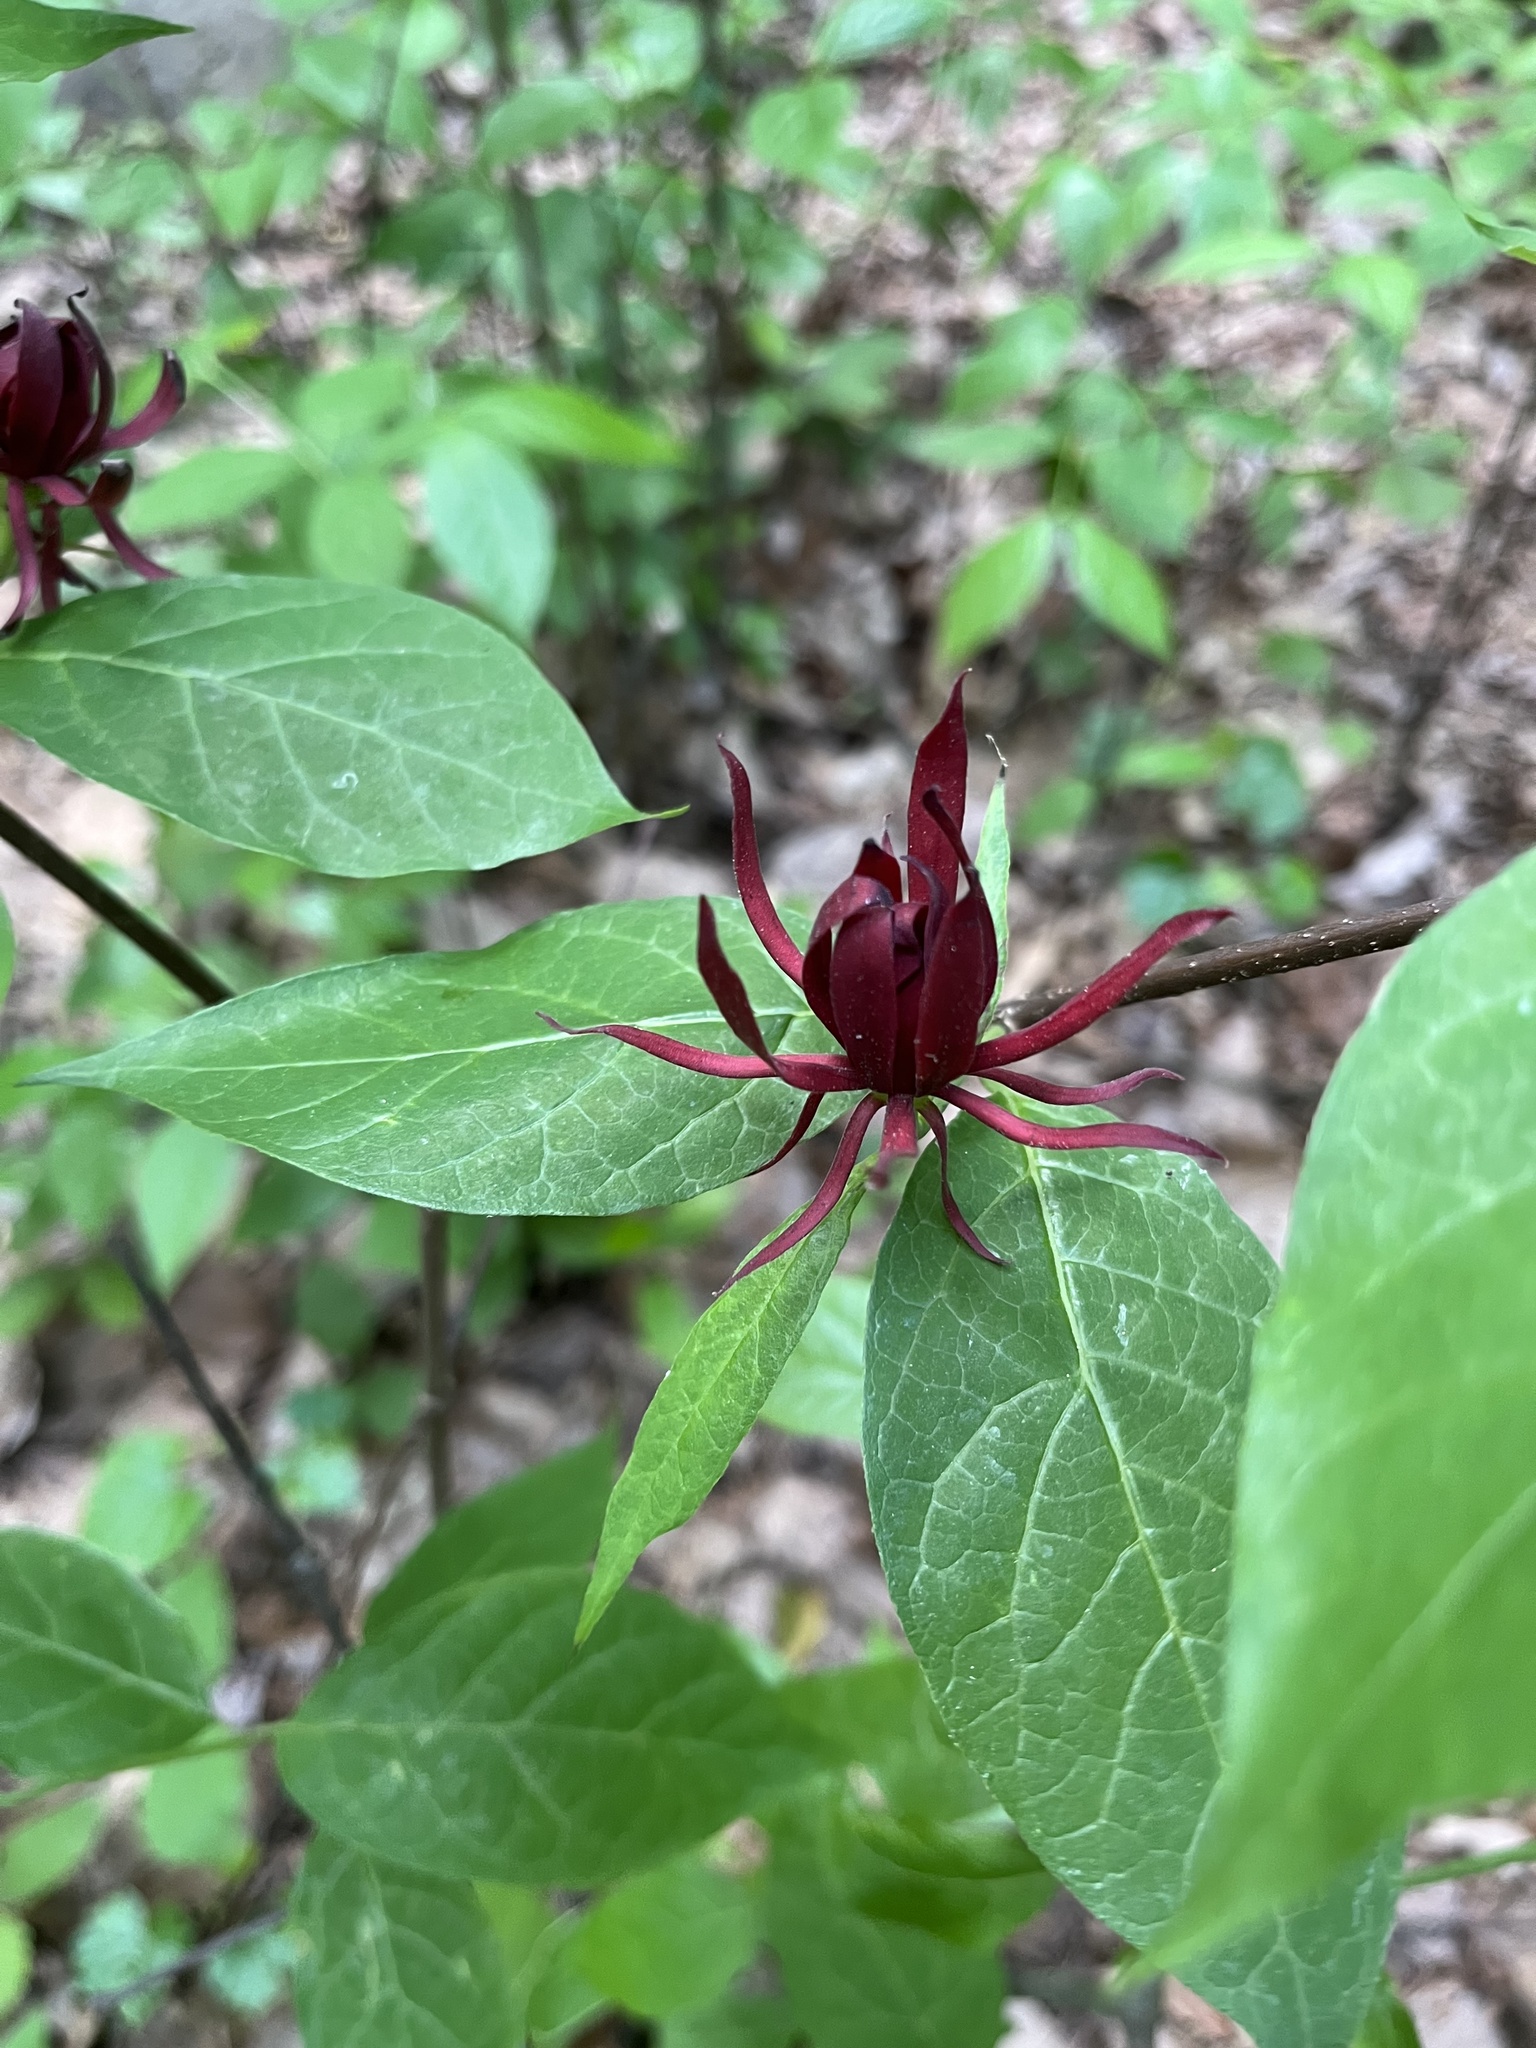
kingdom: Plantae
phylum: Tracheophyta
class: Magnoliopsida
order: Laurales
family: Calycanthaceae
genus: Calycanthus
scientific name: Calycanthus floridus
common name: Carolina-allspice
